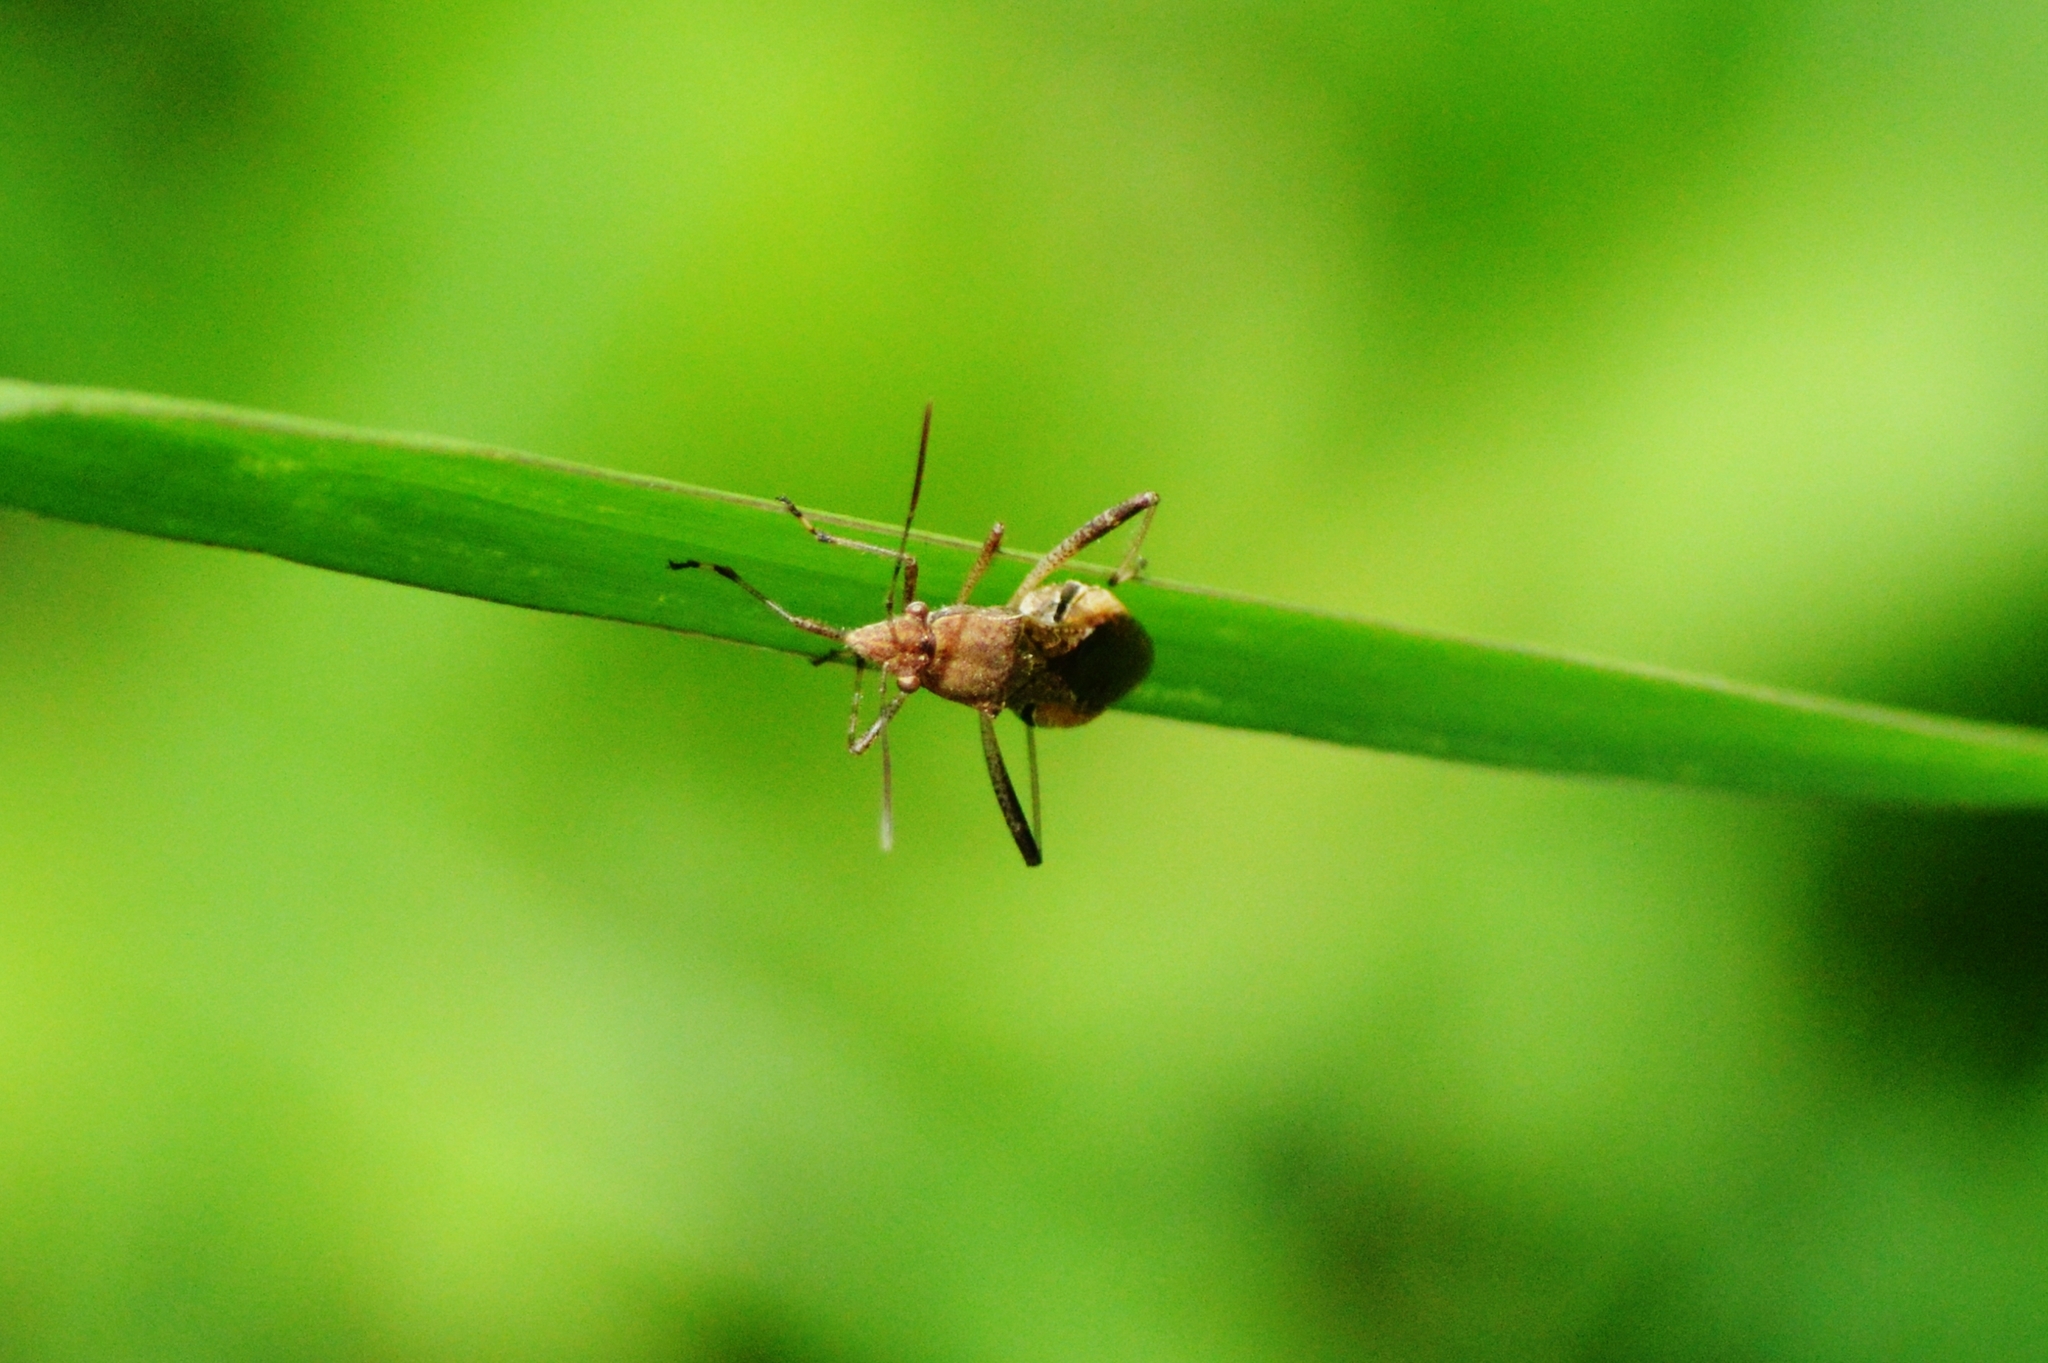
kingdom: Animalia
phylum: Arthropoda
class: Insecta
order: Hemiptera
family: Alydidae
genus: Neomegalotomus
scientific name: Neomegalotomus parvus
